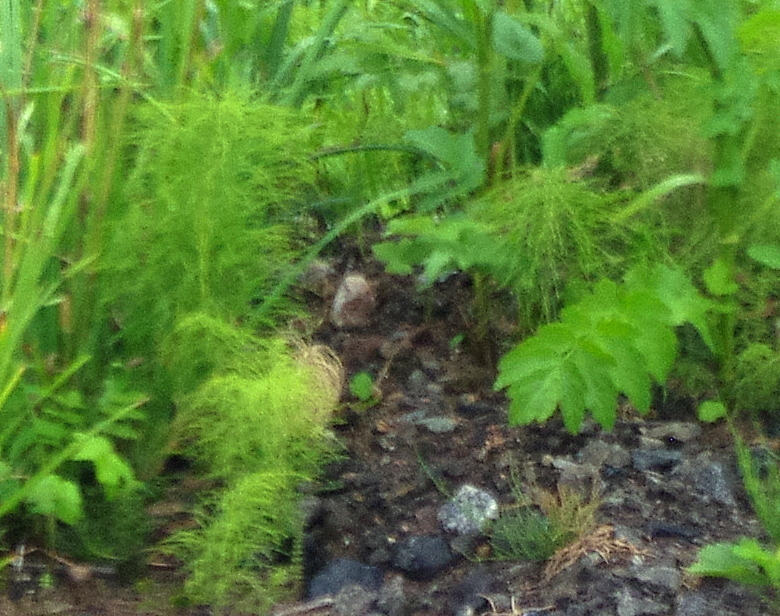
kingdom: Plantae
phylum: Tracheophyta
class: Polypodiopsida
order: Equisetales
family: Equisetaceae
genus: Equisetum
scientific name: Equisetum sylvaticum
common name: Wood horsetail
